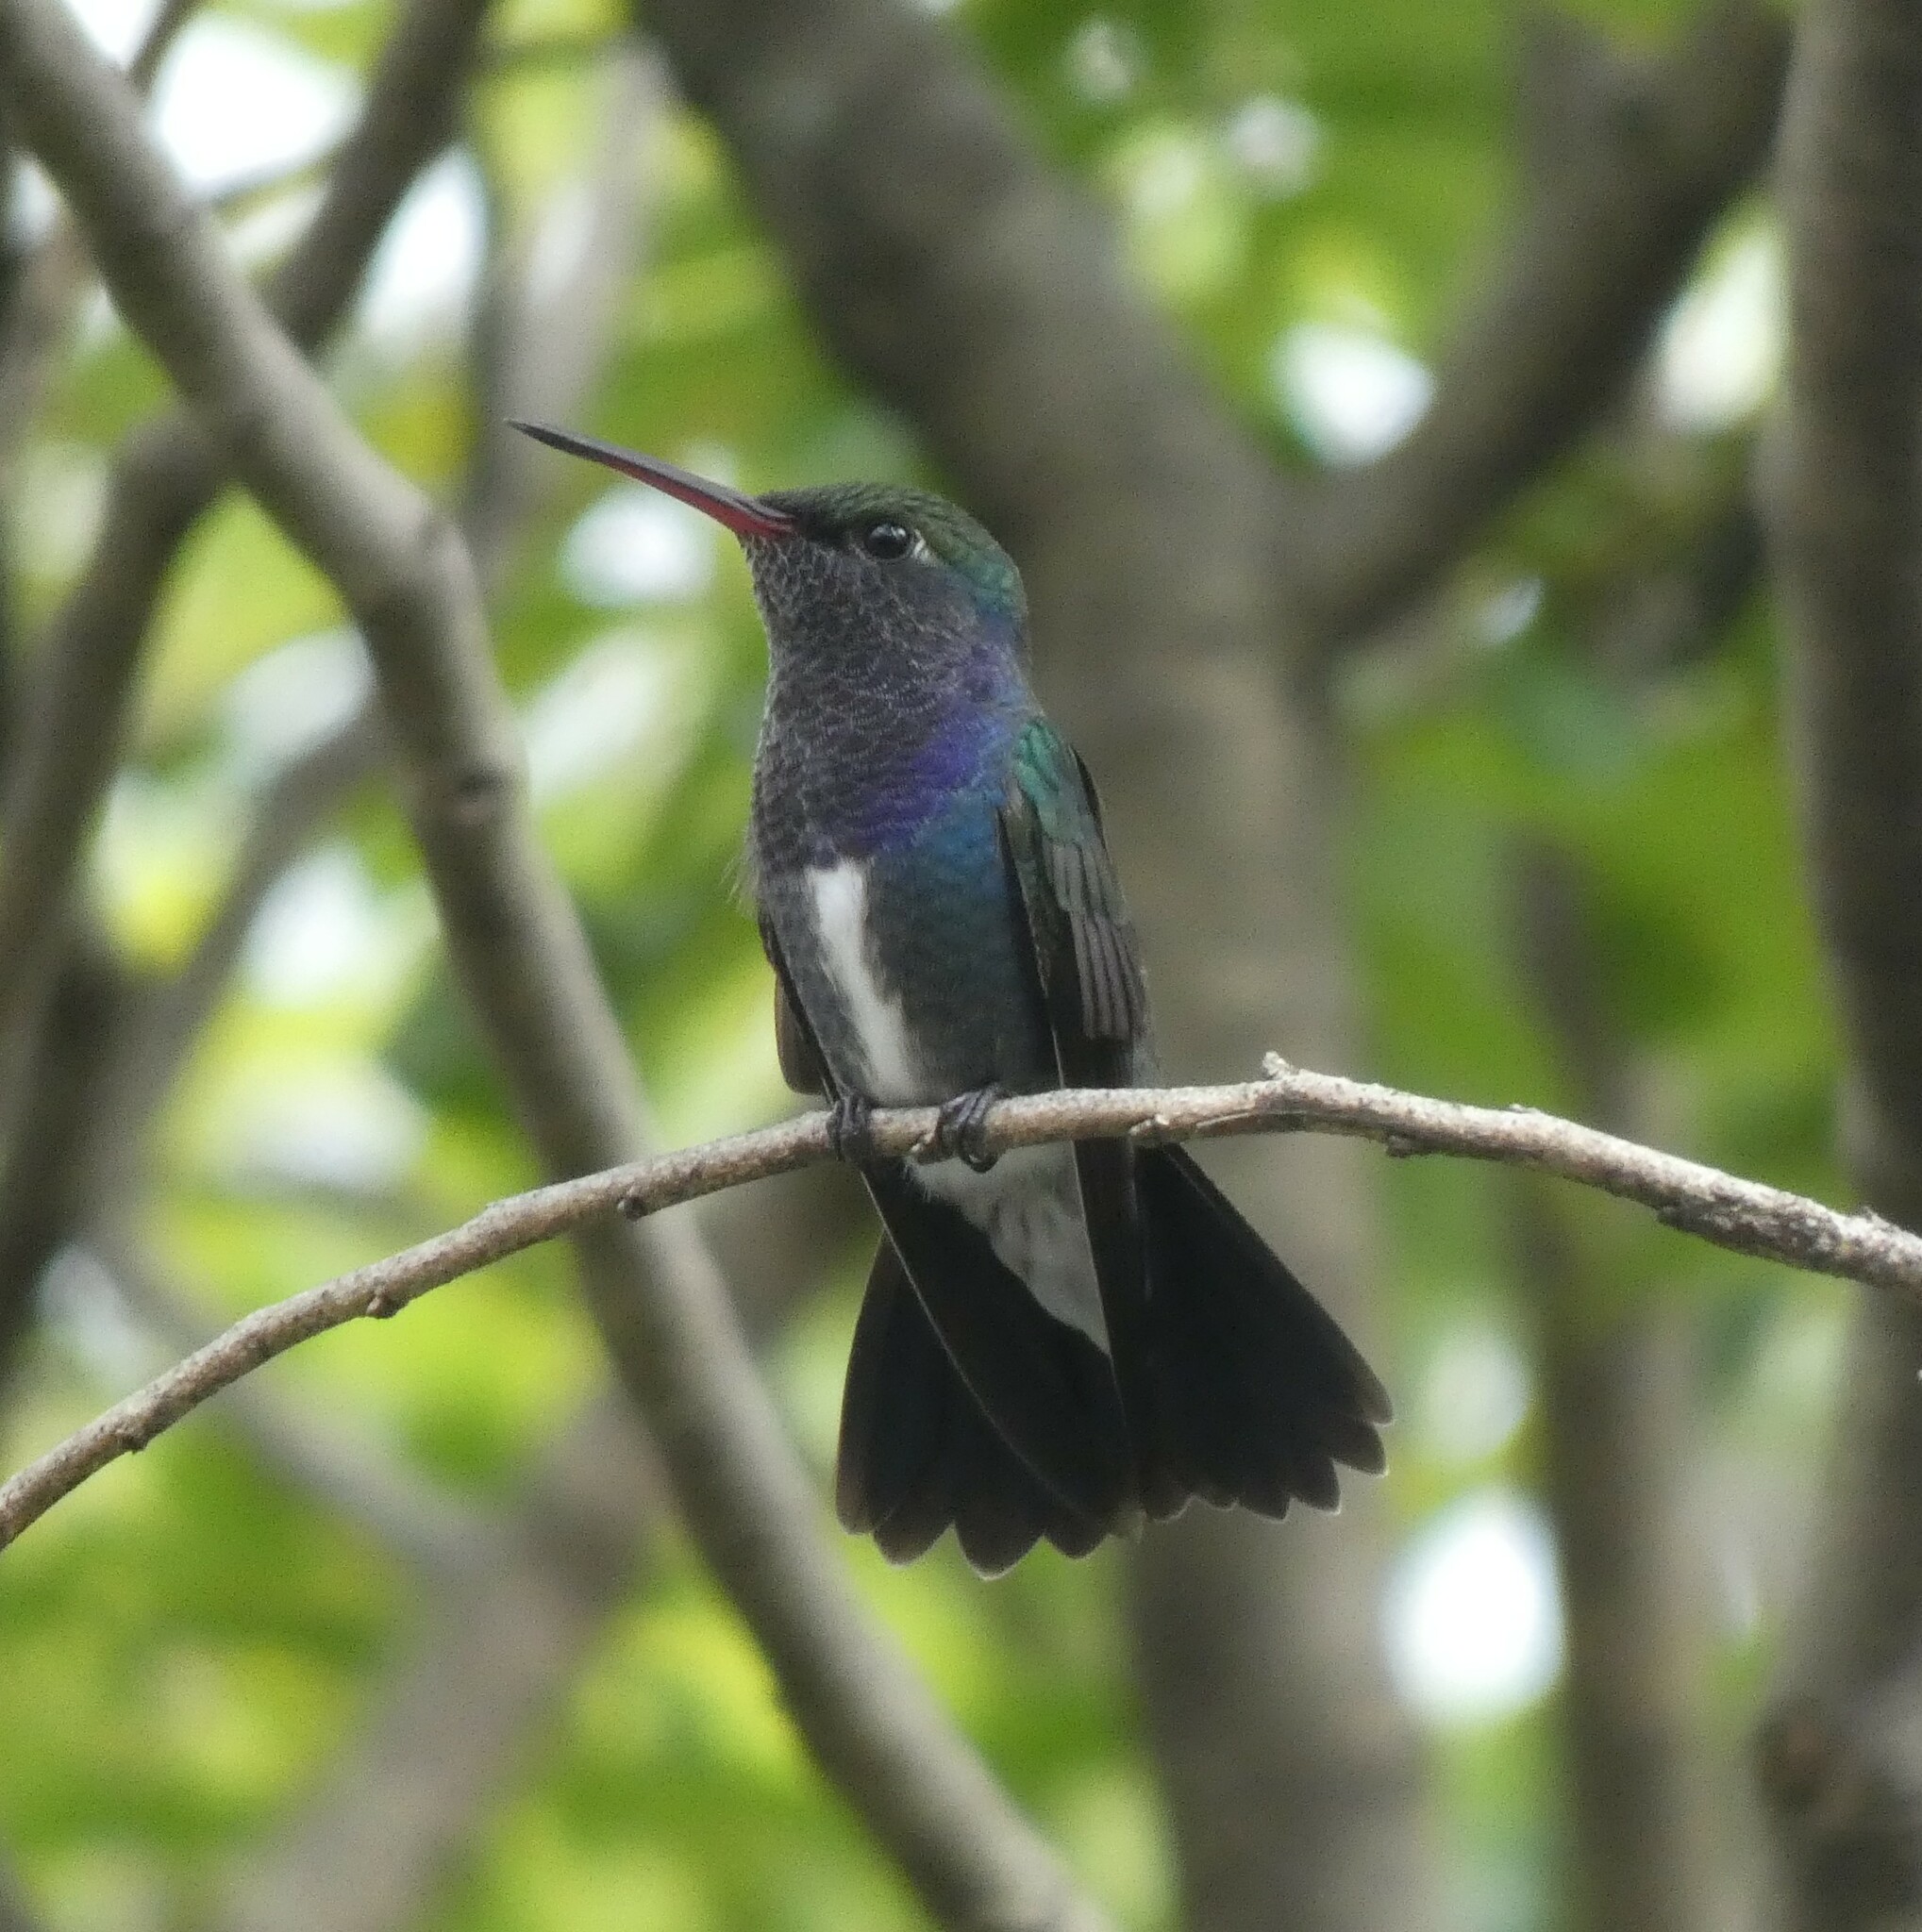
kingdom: Animalia
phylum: Chordata
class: Aves
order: Apodiformes
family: Trochilidae
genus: Chionomesa
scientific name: Chionomesa lactea
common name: Sapphire-spangled emerald
